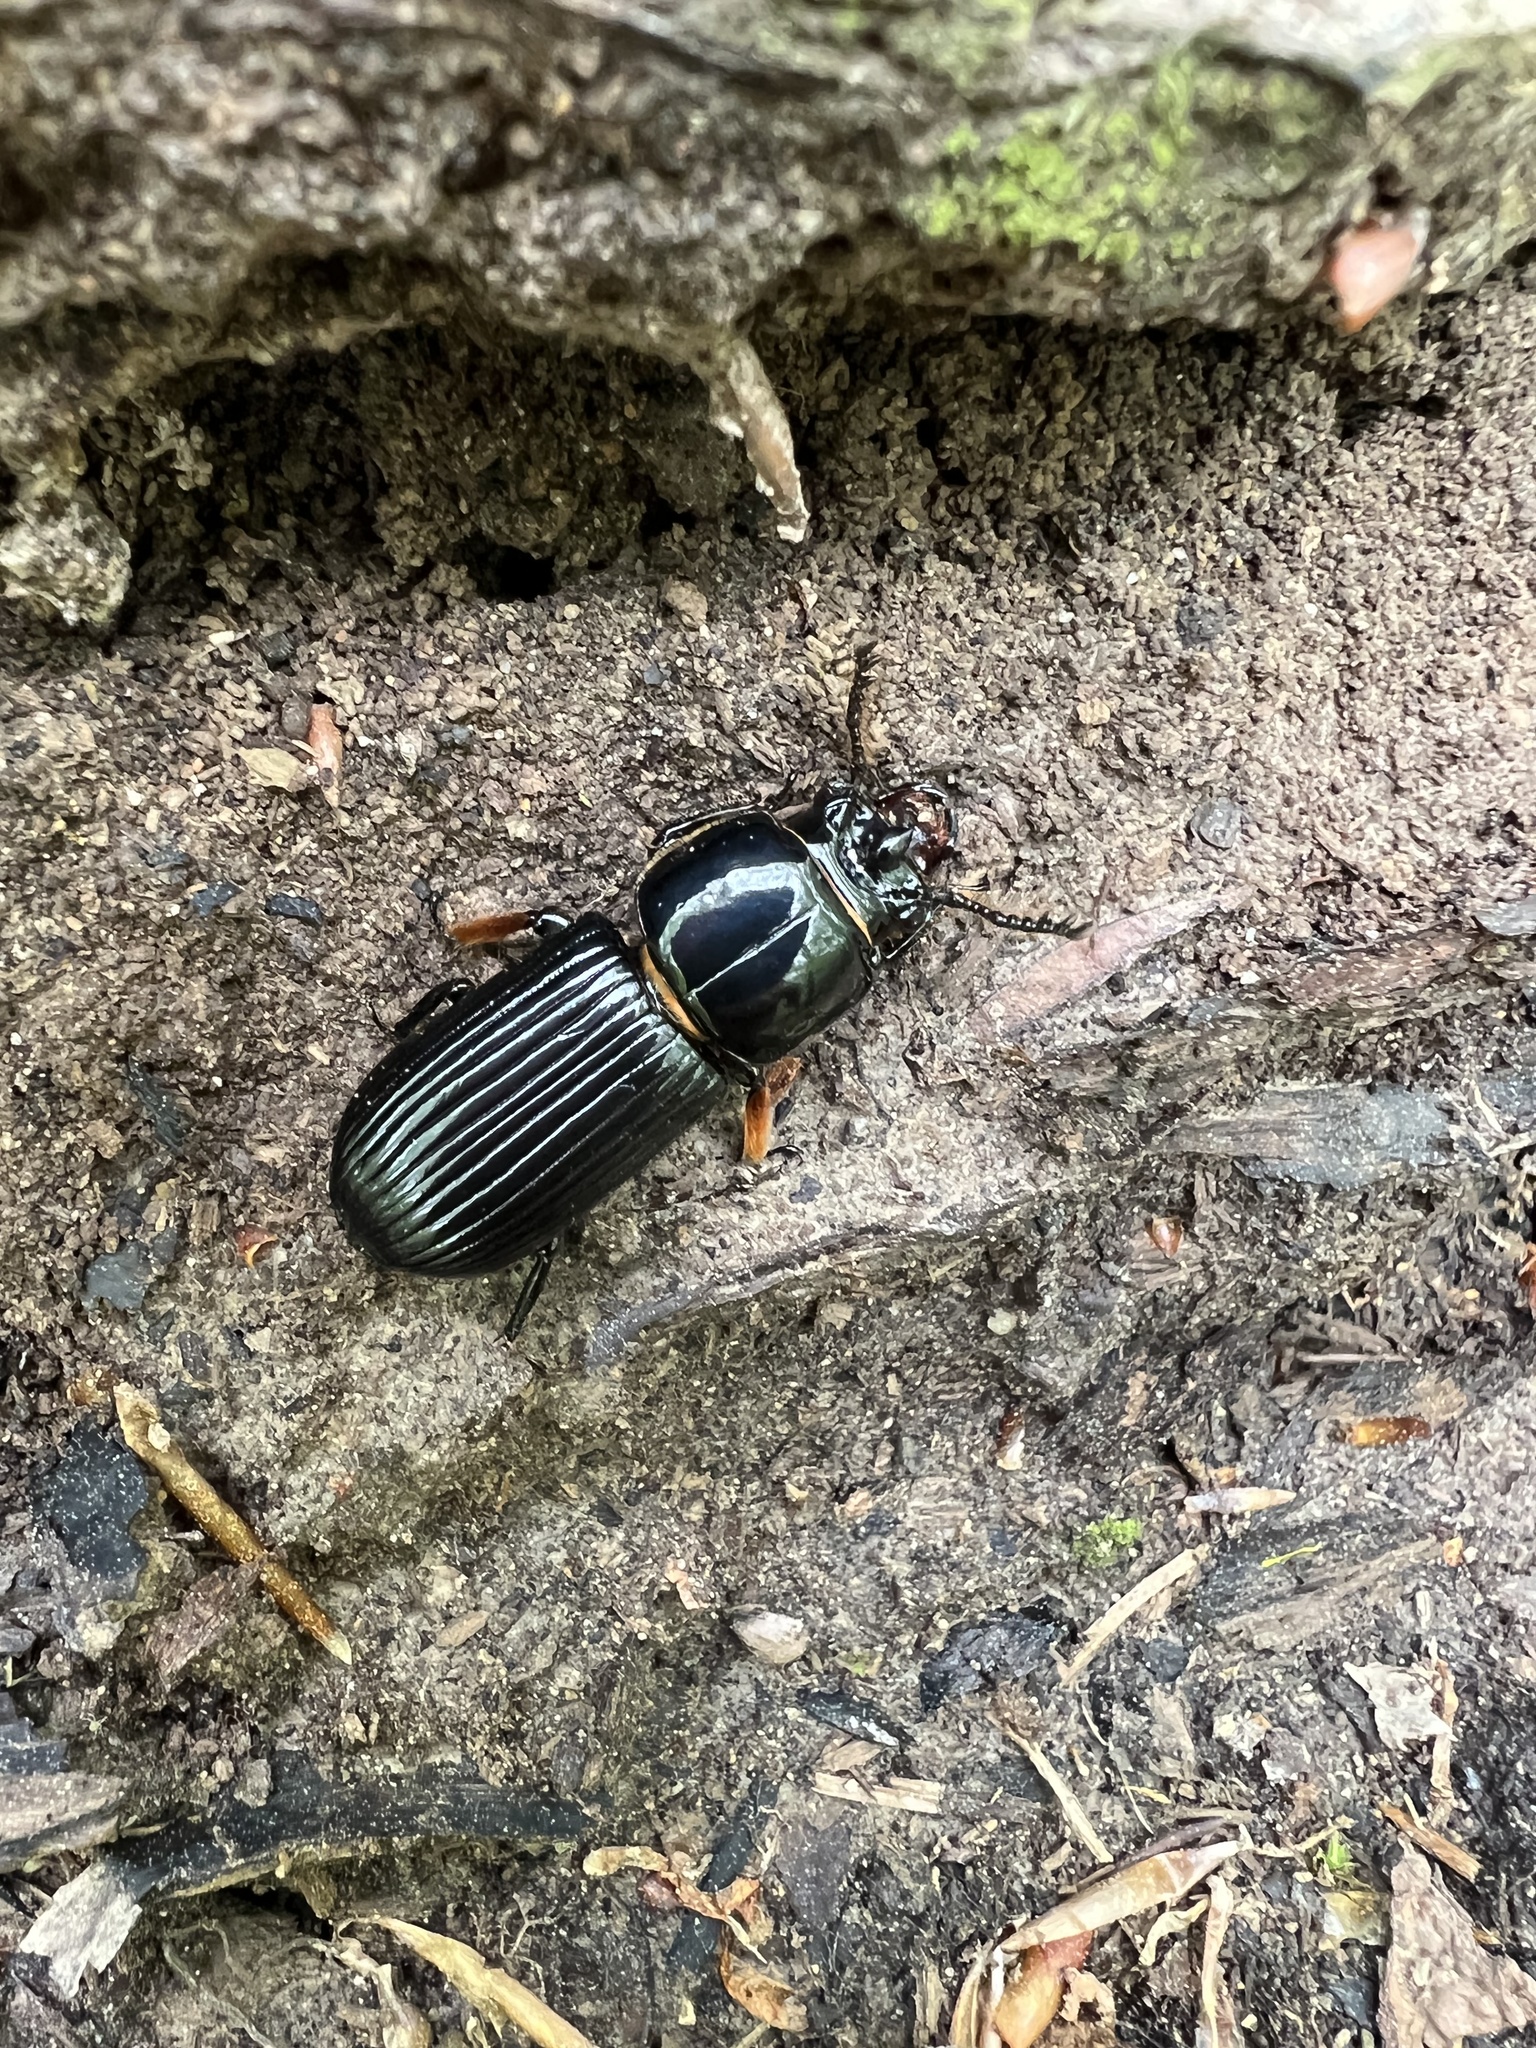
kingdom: Animalia
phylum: Arthropoda
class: Insecta
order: Coleoptera
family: Passalidae
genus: Odontotaenius
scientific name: Odontotaenius disjunctus
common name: Patent leather beetle
